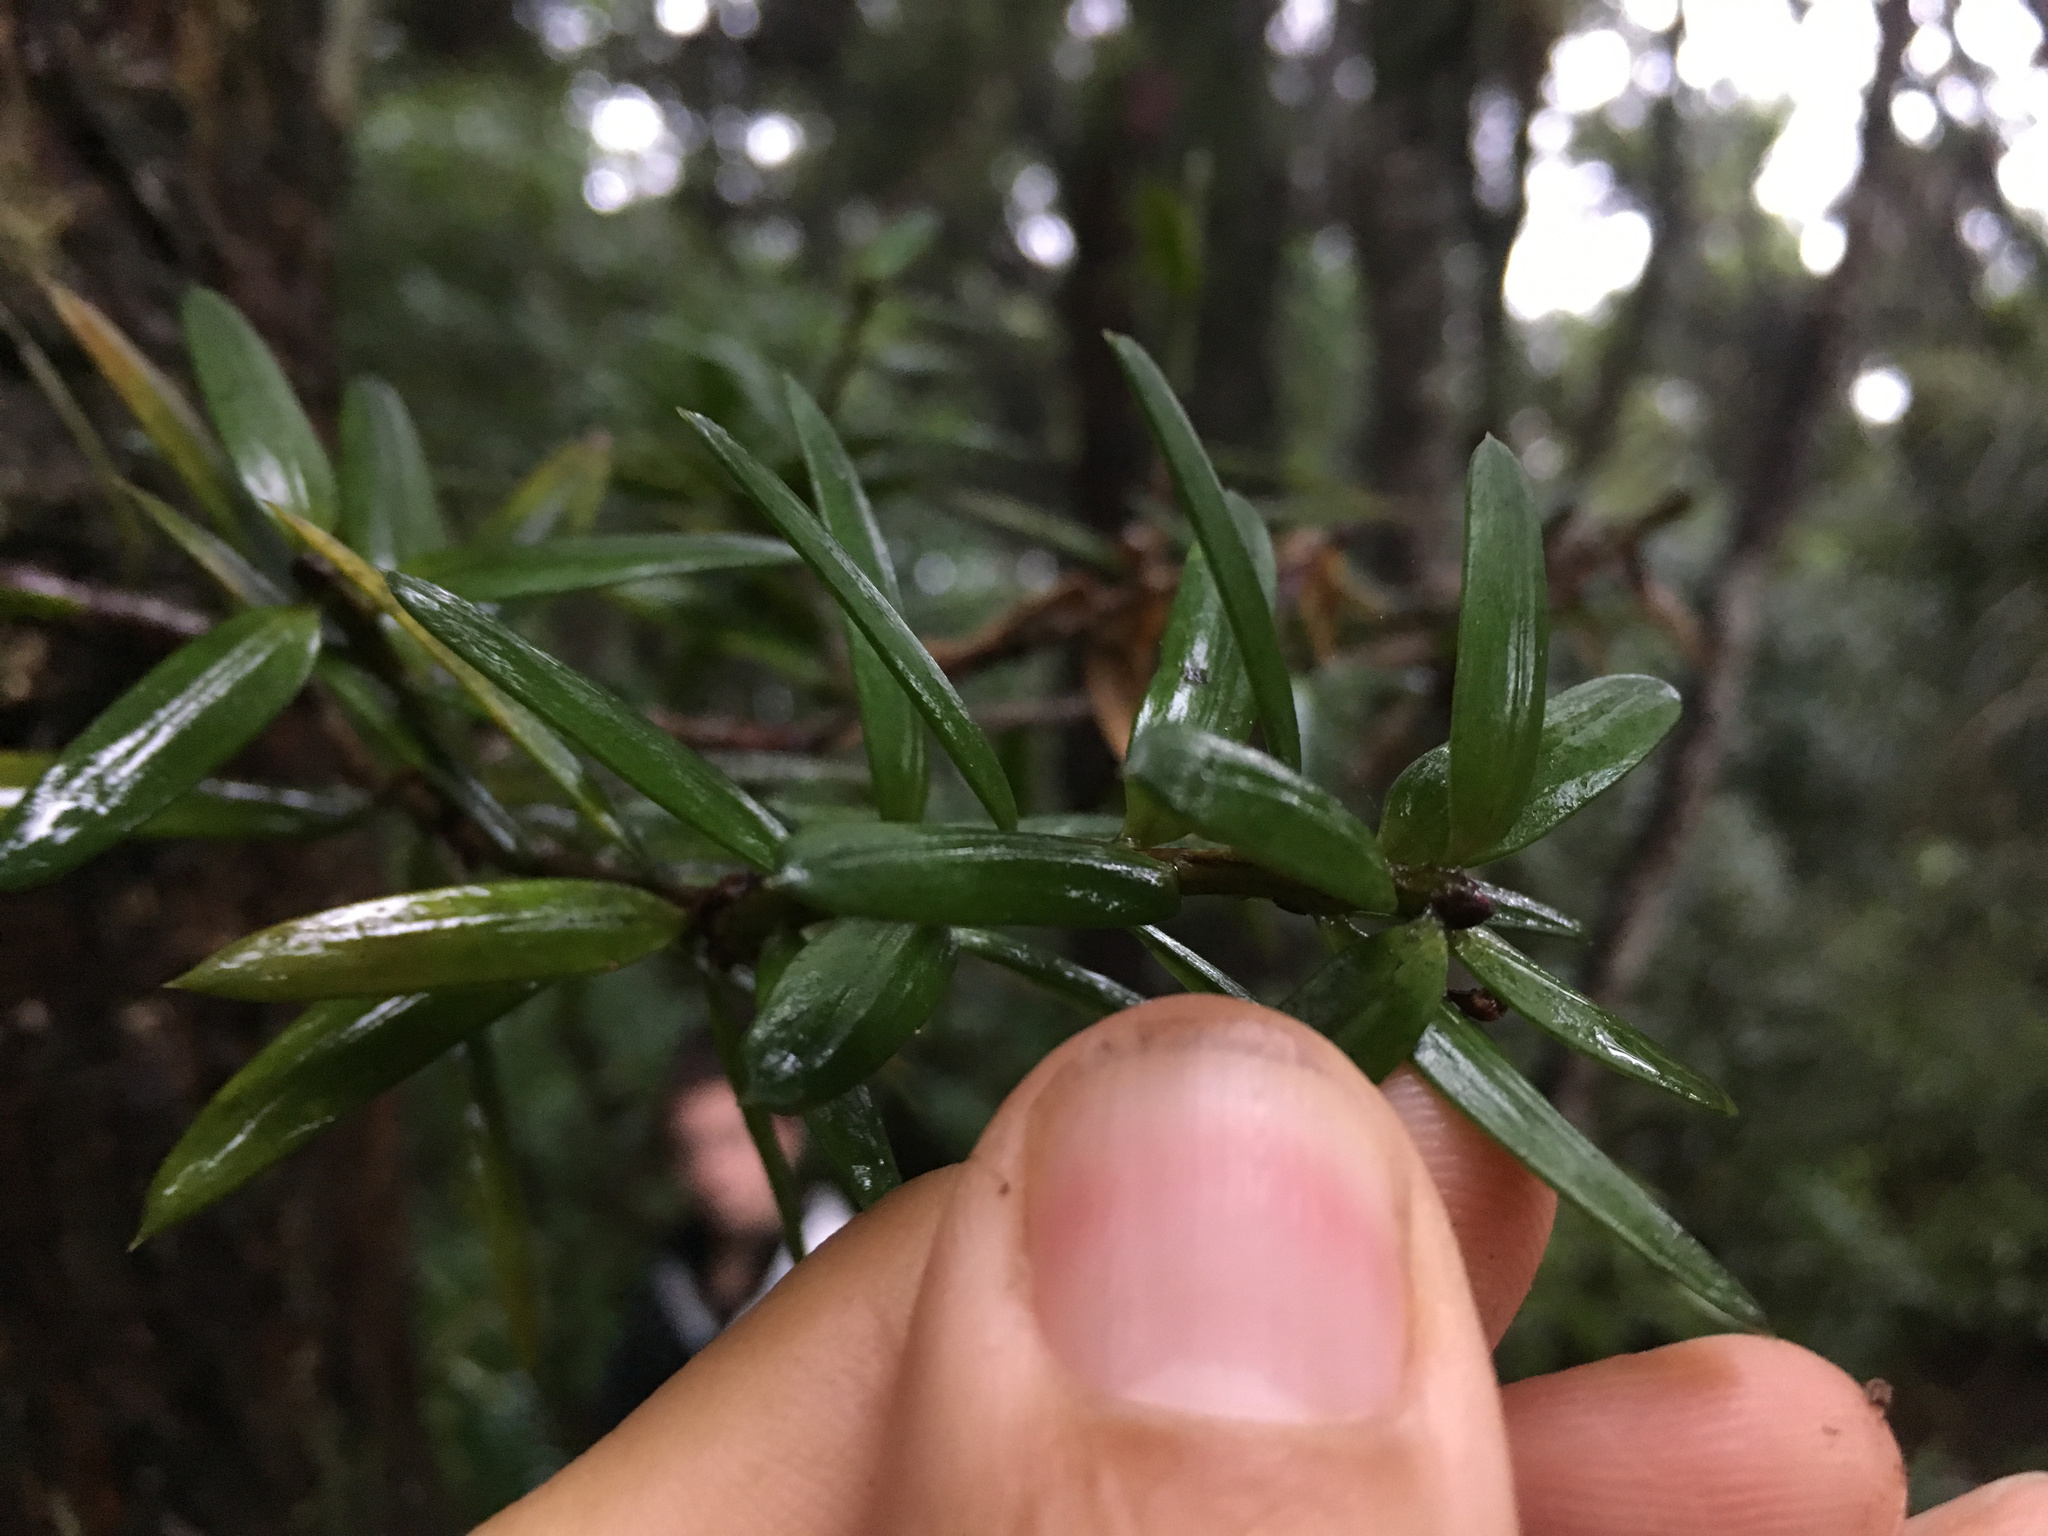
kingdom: Plantae
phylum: Tracheophyta
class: Pinopsida
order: Pinales
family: Podocarpaceae
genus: Podocarpus
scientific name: Podocarpus totara
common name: Totara
